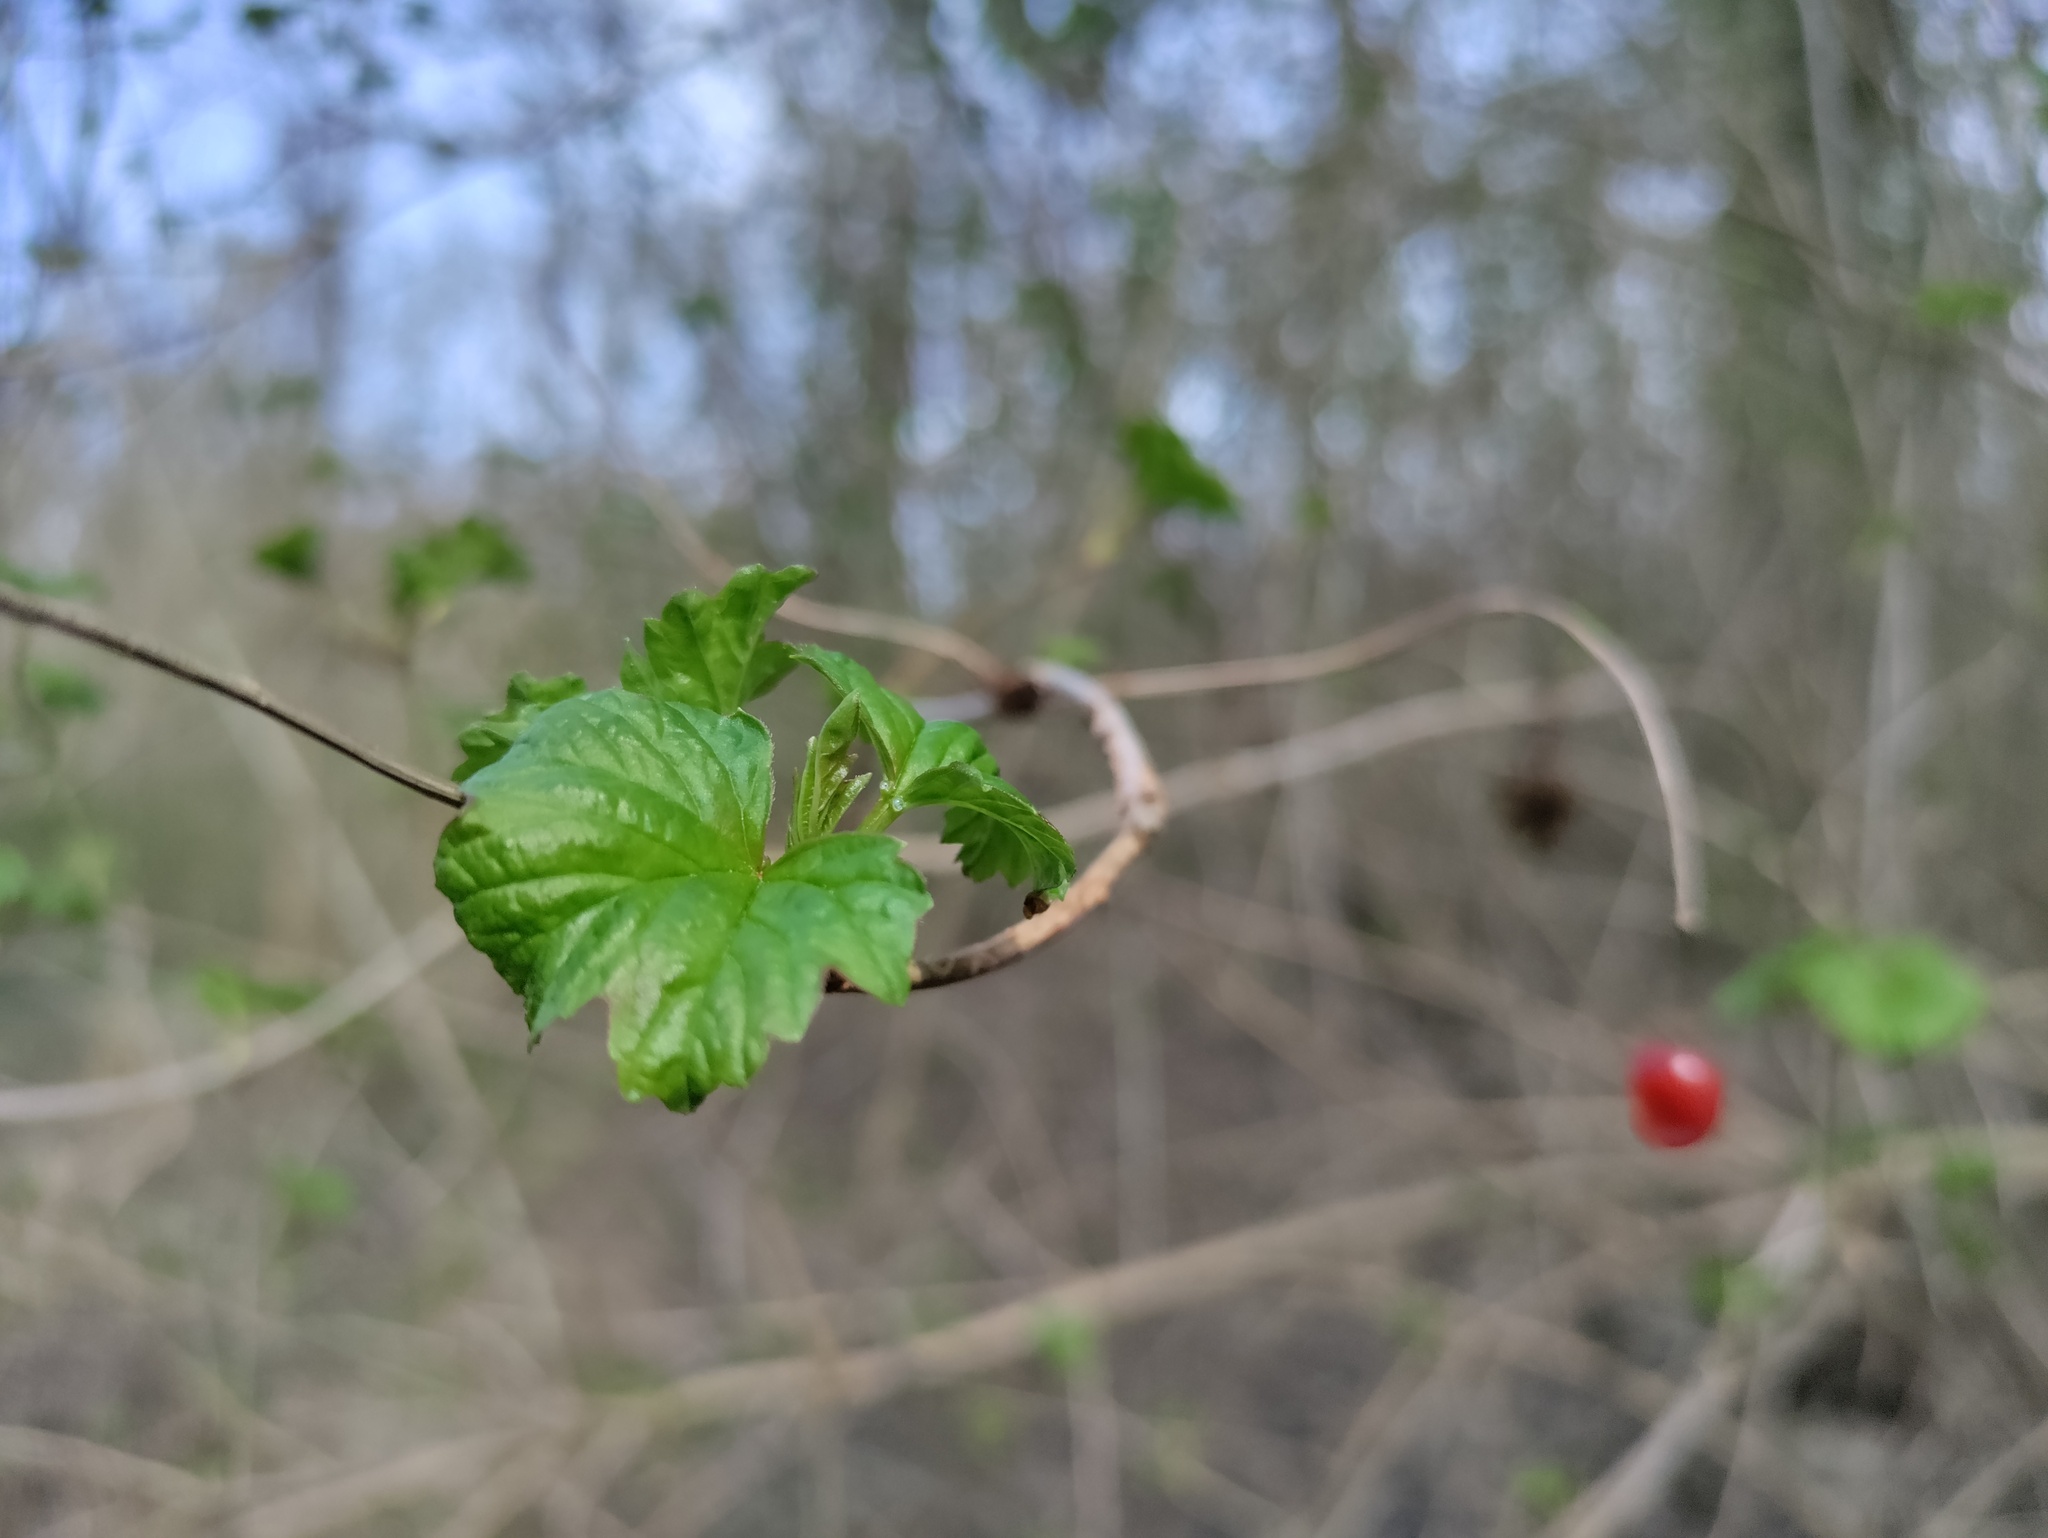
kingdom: Plantae
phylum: Tracheophyta
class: Magnoliopsida
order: Dipsacales
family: Viburnaceae
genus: Viburnum
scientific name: Viburnum opulus
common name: Guelder-rose
